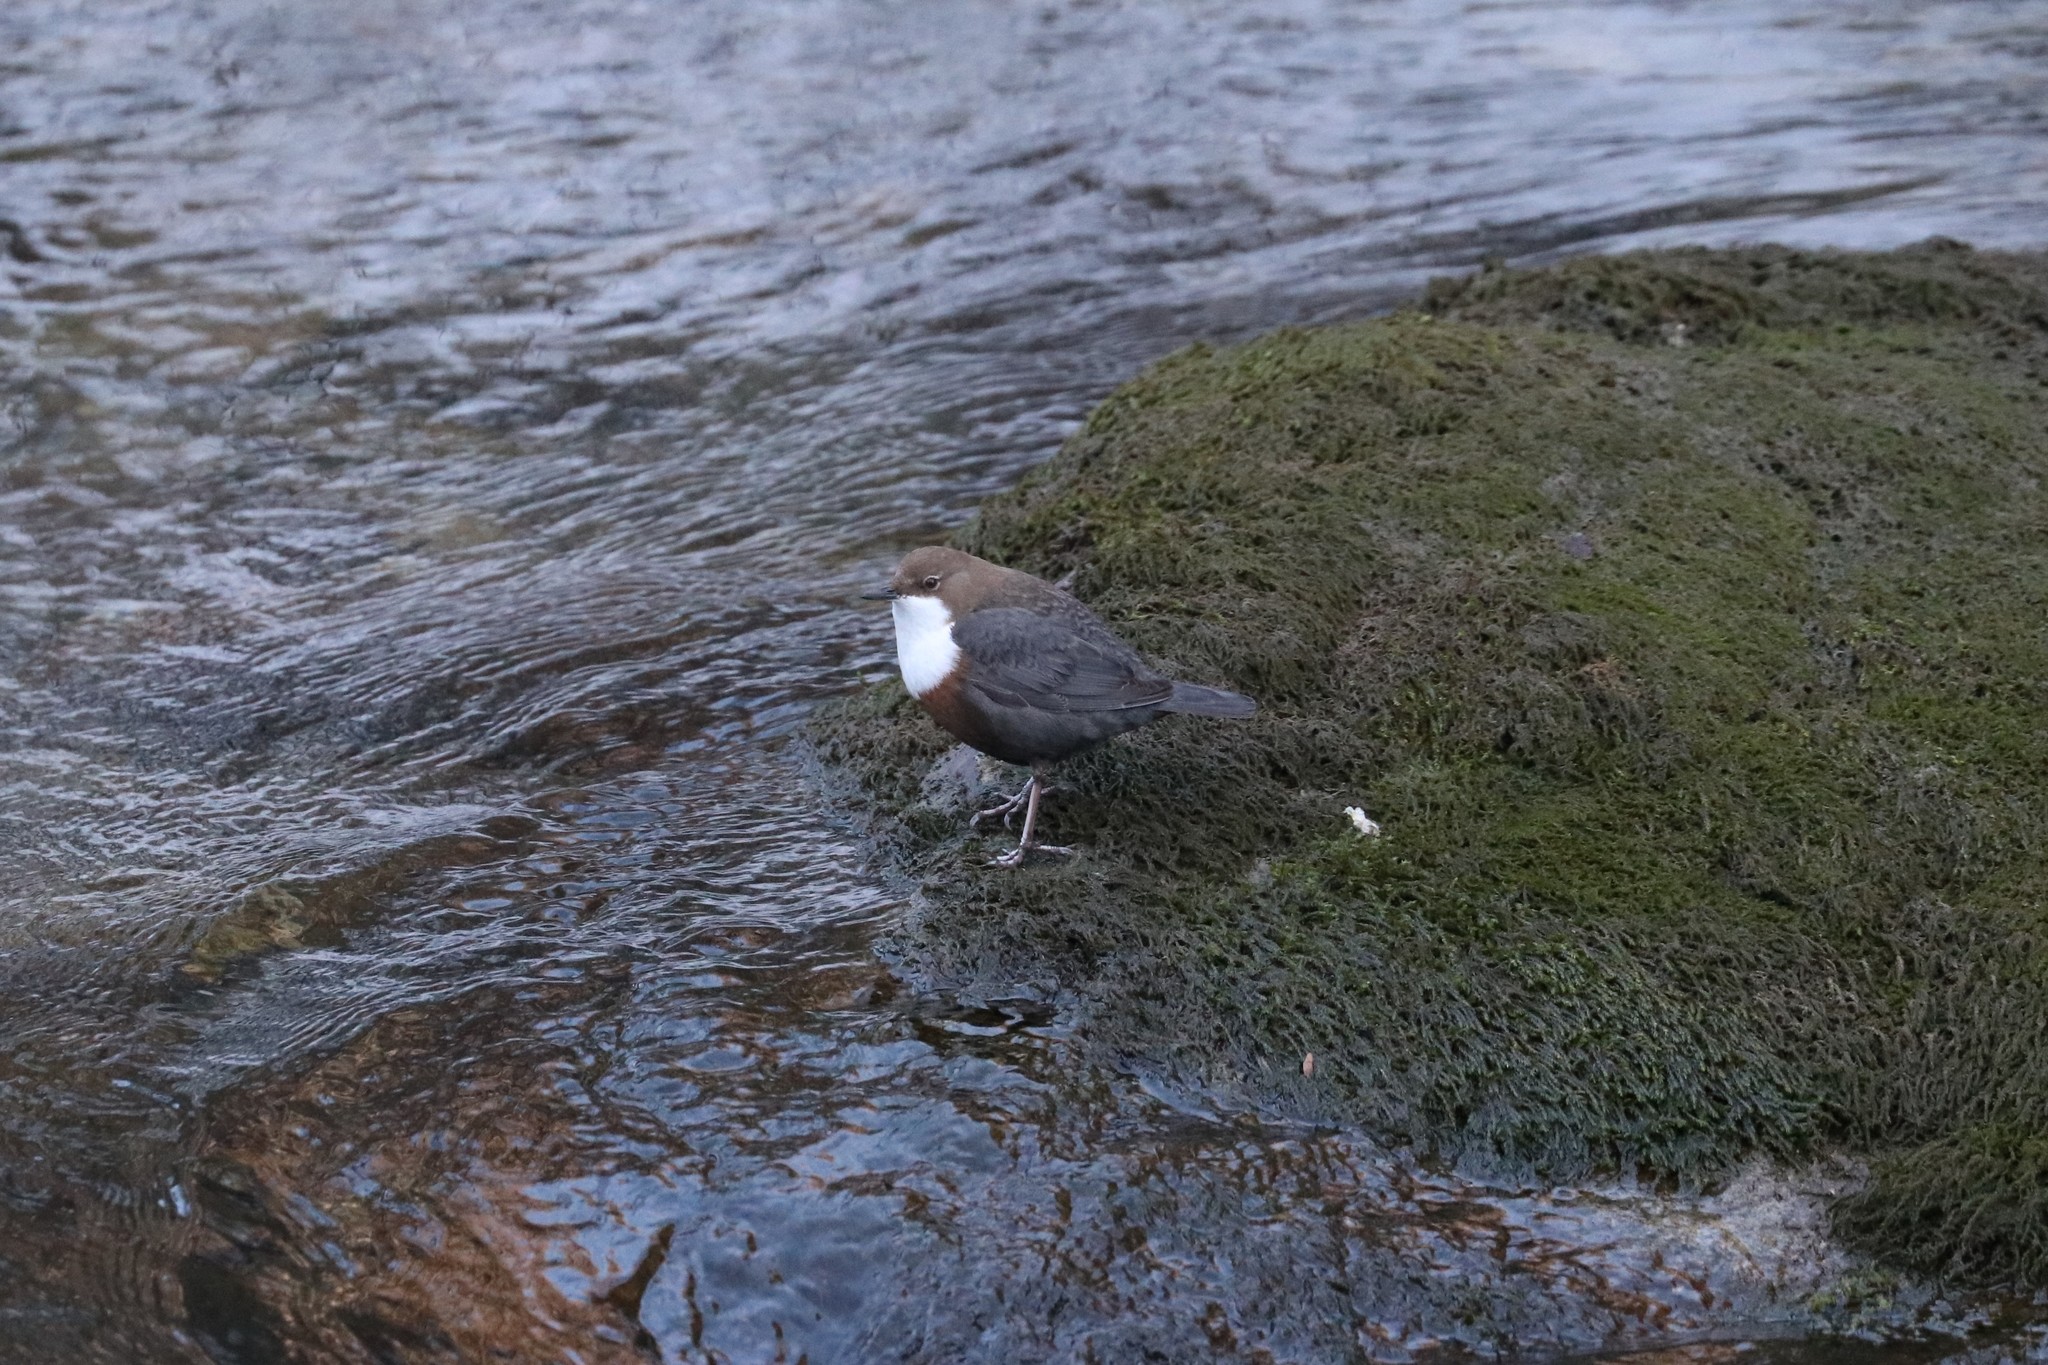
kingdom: Animalia
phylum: Chordata
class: Aves
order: Passeriformes
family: Cinclidae
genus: Cinclus
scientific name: Cinclus cinclus
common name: White-throated dipper
